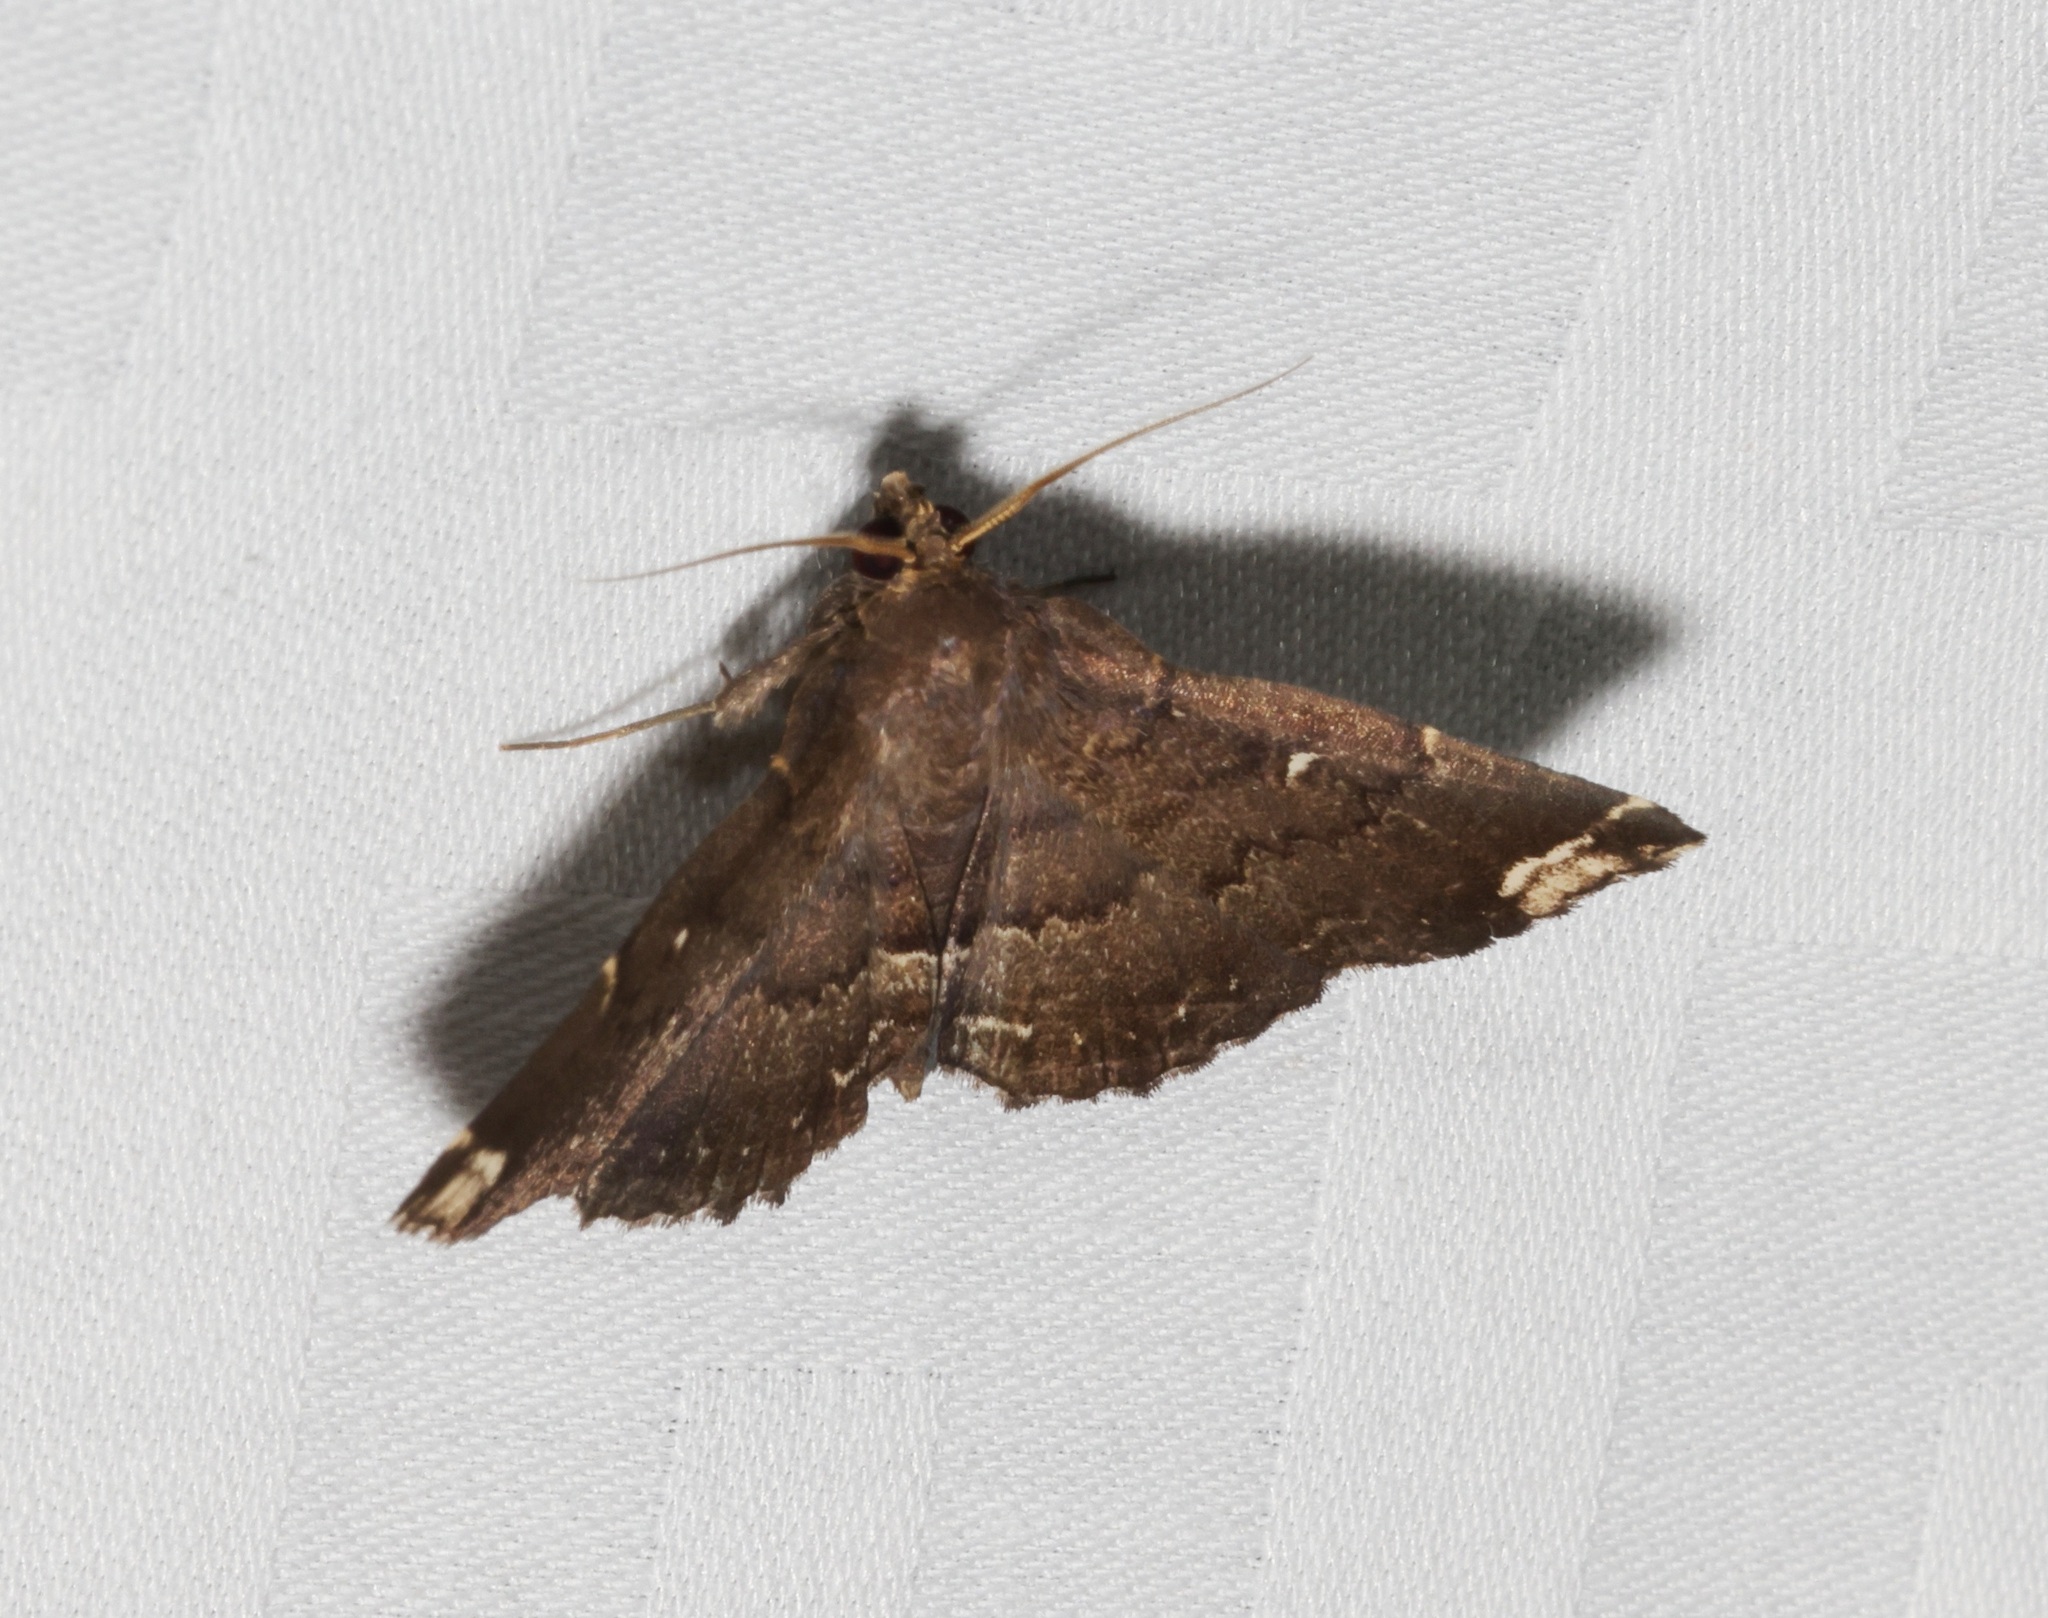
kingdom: Animalia
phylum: Arthropoda
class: Insecta
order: Lepidoptera
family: Erebidae
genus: Adrapsa
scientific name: Adrapsa quadrilinealis
